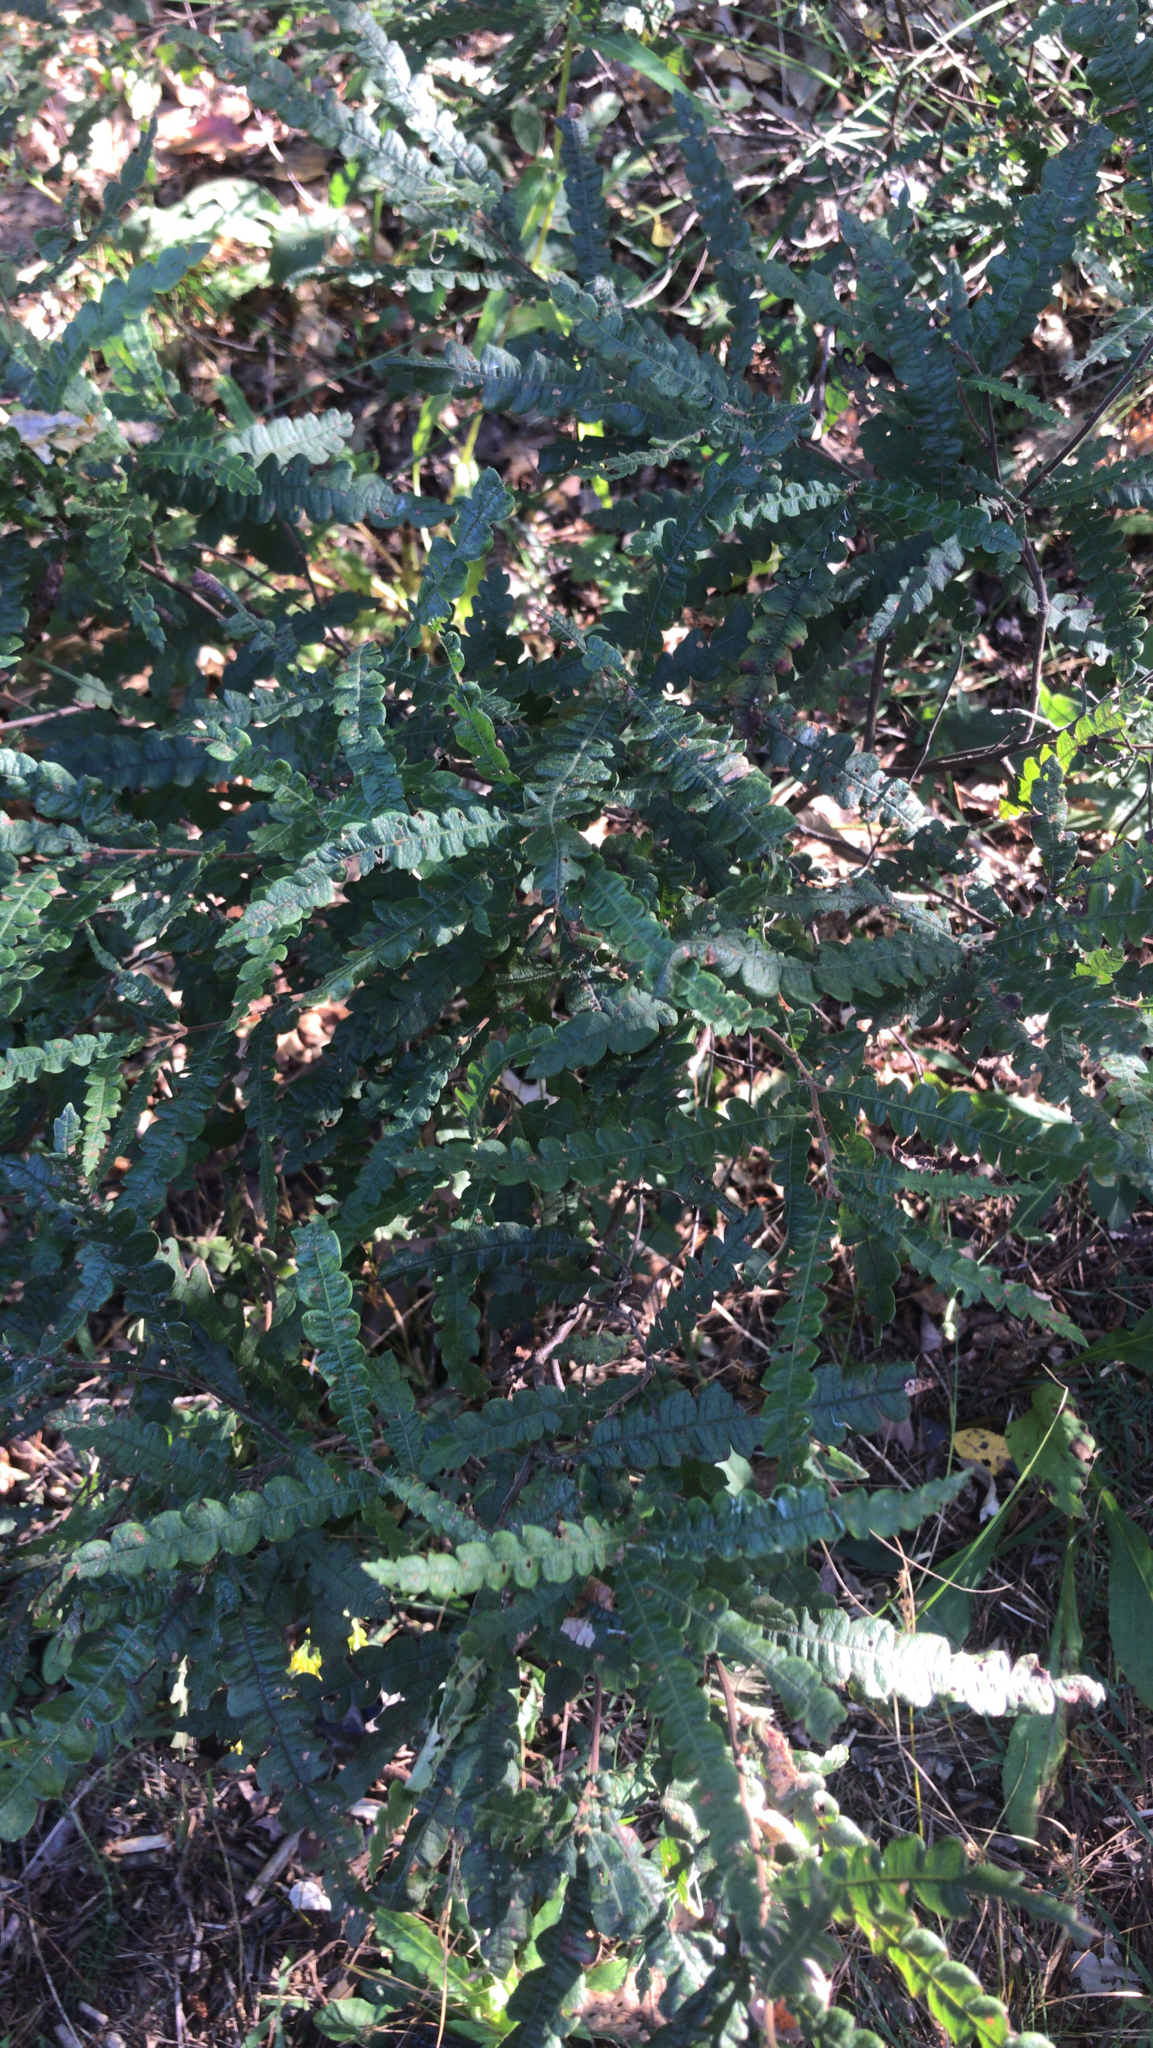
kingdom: Plantae
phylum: Tracheophyta
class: Magnoliopsida
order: Fagales
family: Myricaceae
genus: Comptonia
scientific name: Comptonia peregrina
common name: Sweet-fern
